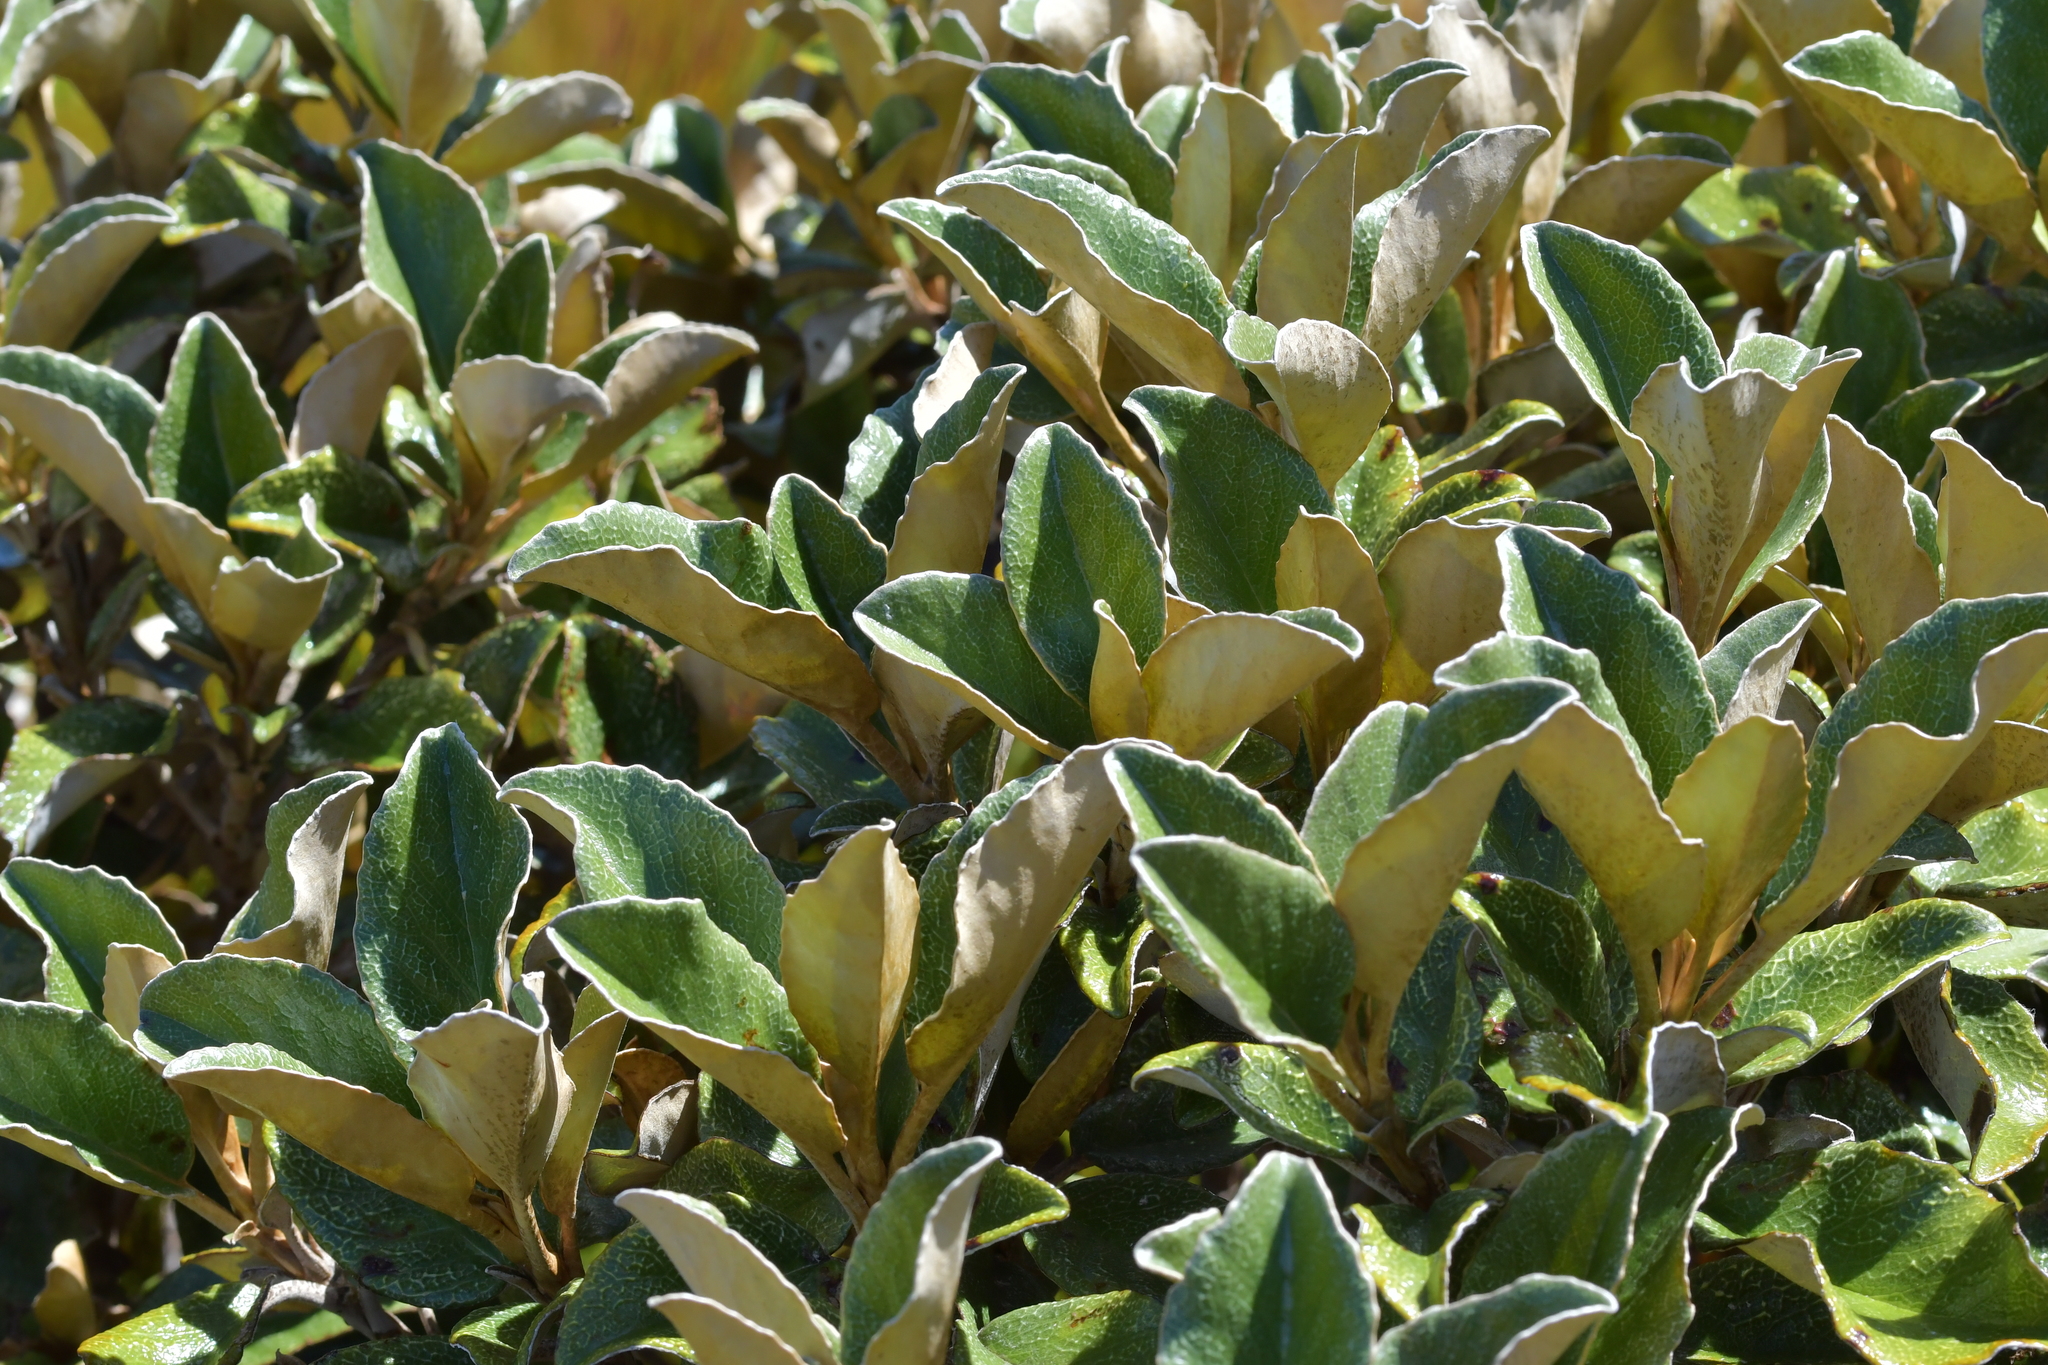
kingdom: Plantae
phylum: Tracheophyta
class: Magnoliopsida
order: Asterales
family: Asteraceae
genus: Brachyglottis
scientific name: Brachyglottis elaeagnifolia
